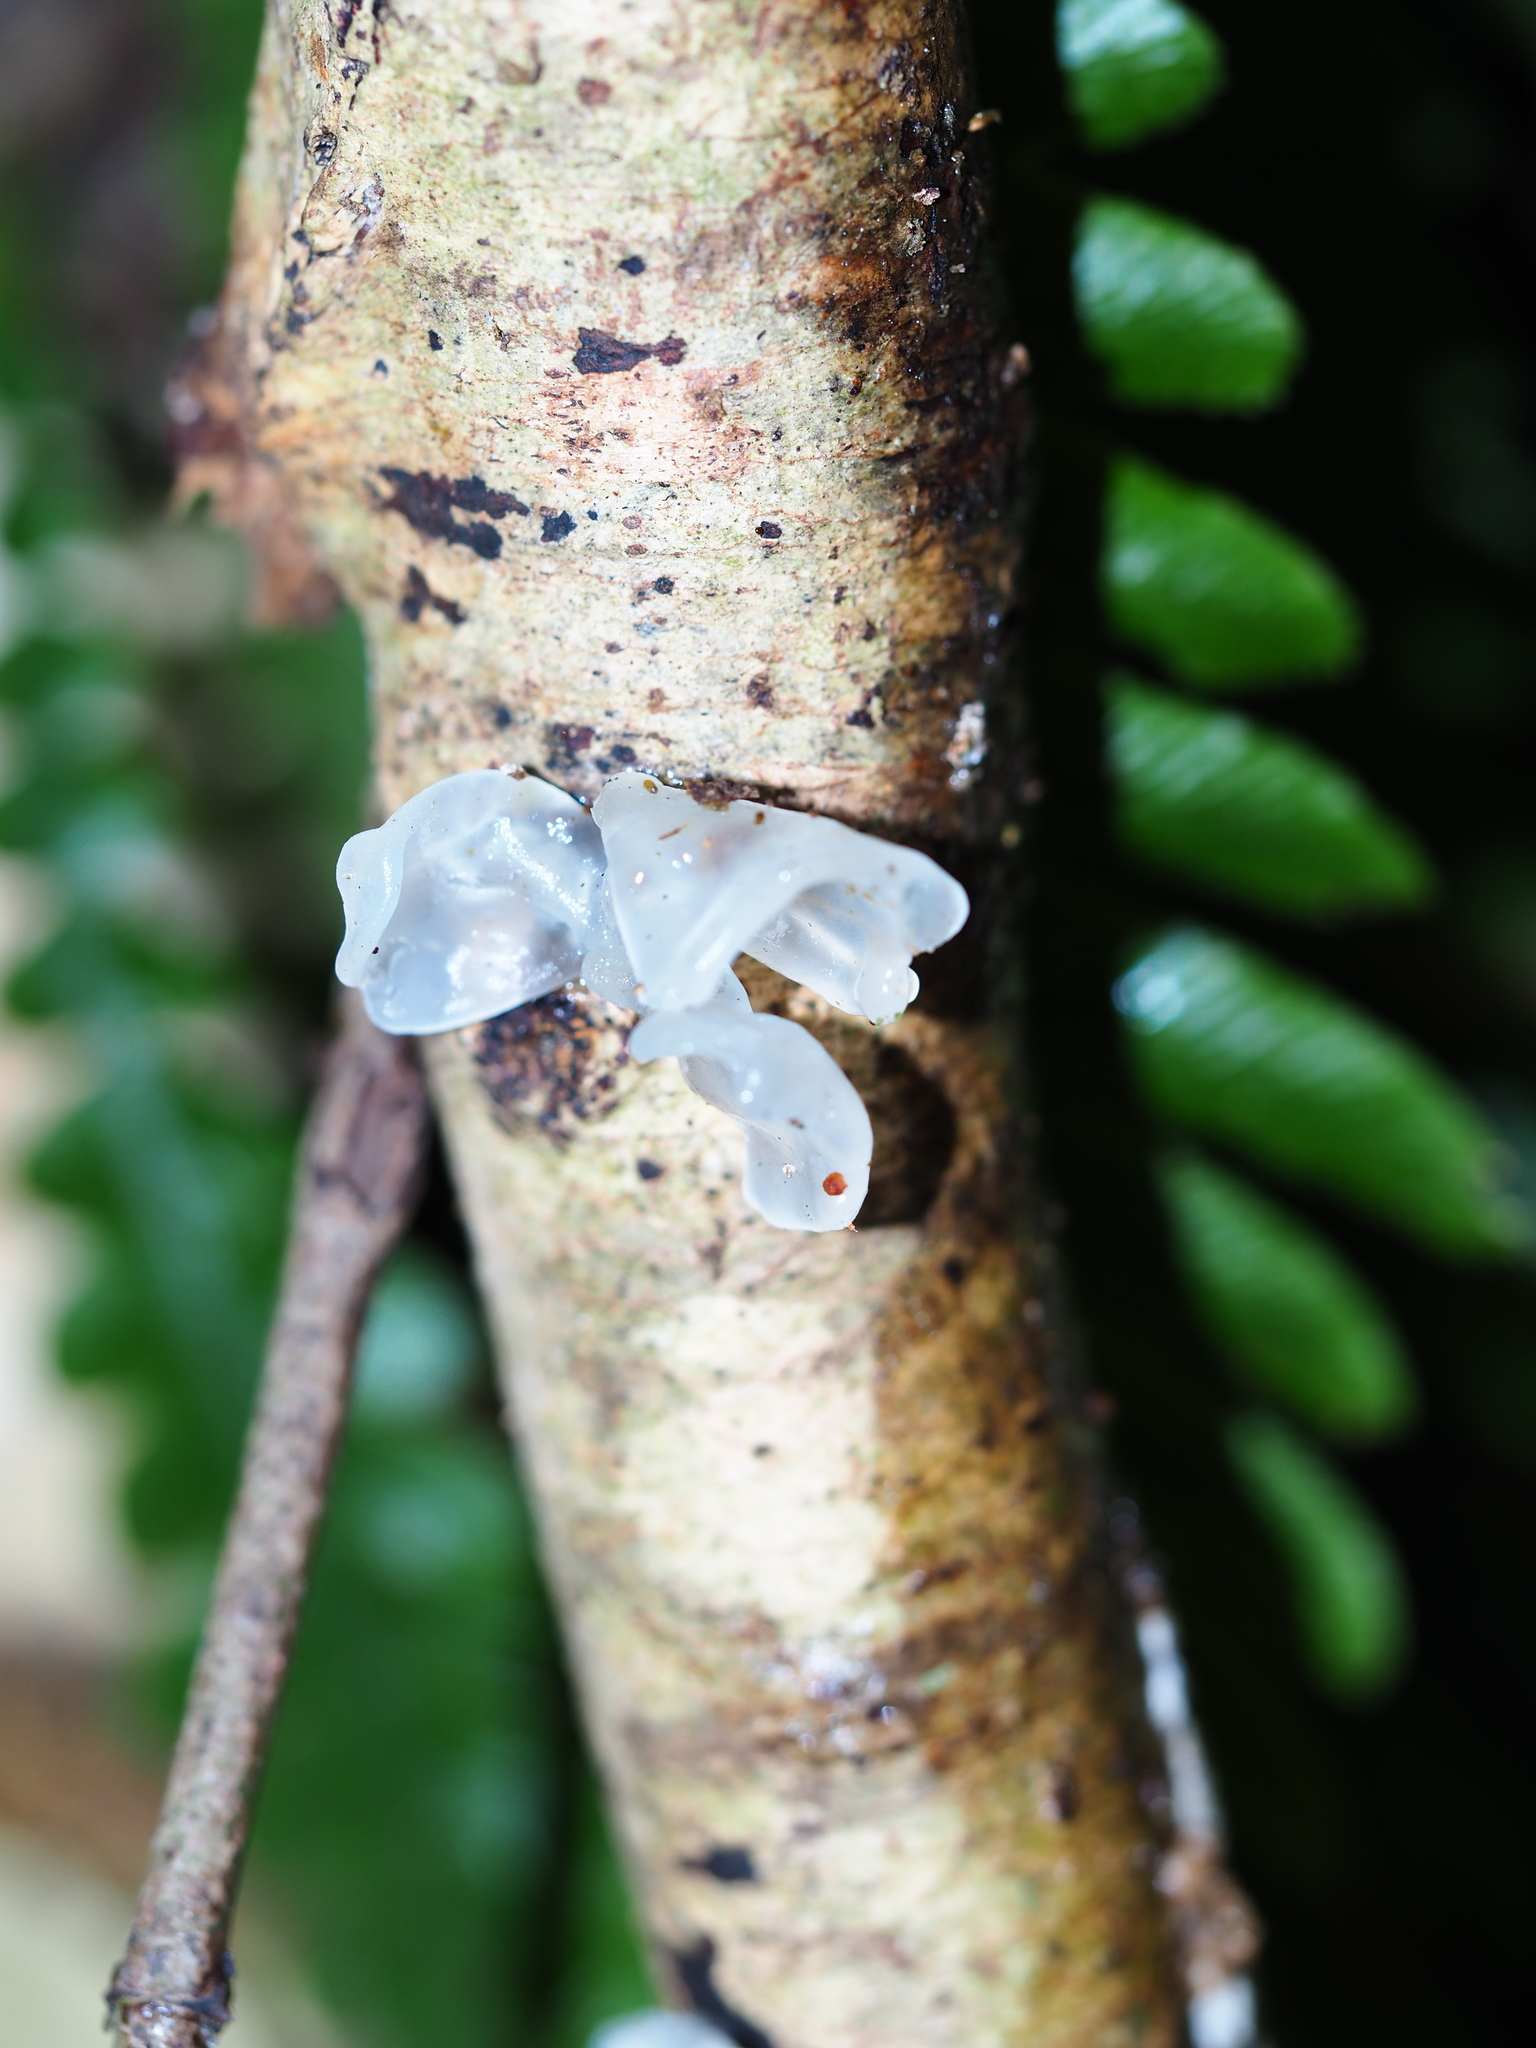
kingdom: Fungi
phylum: Basidiomycota
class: Tremellomycetes
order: Tremellales
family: Tremellaceae
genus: Tremella
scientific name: Tremella fuciformis
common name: Snow fungus
